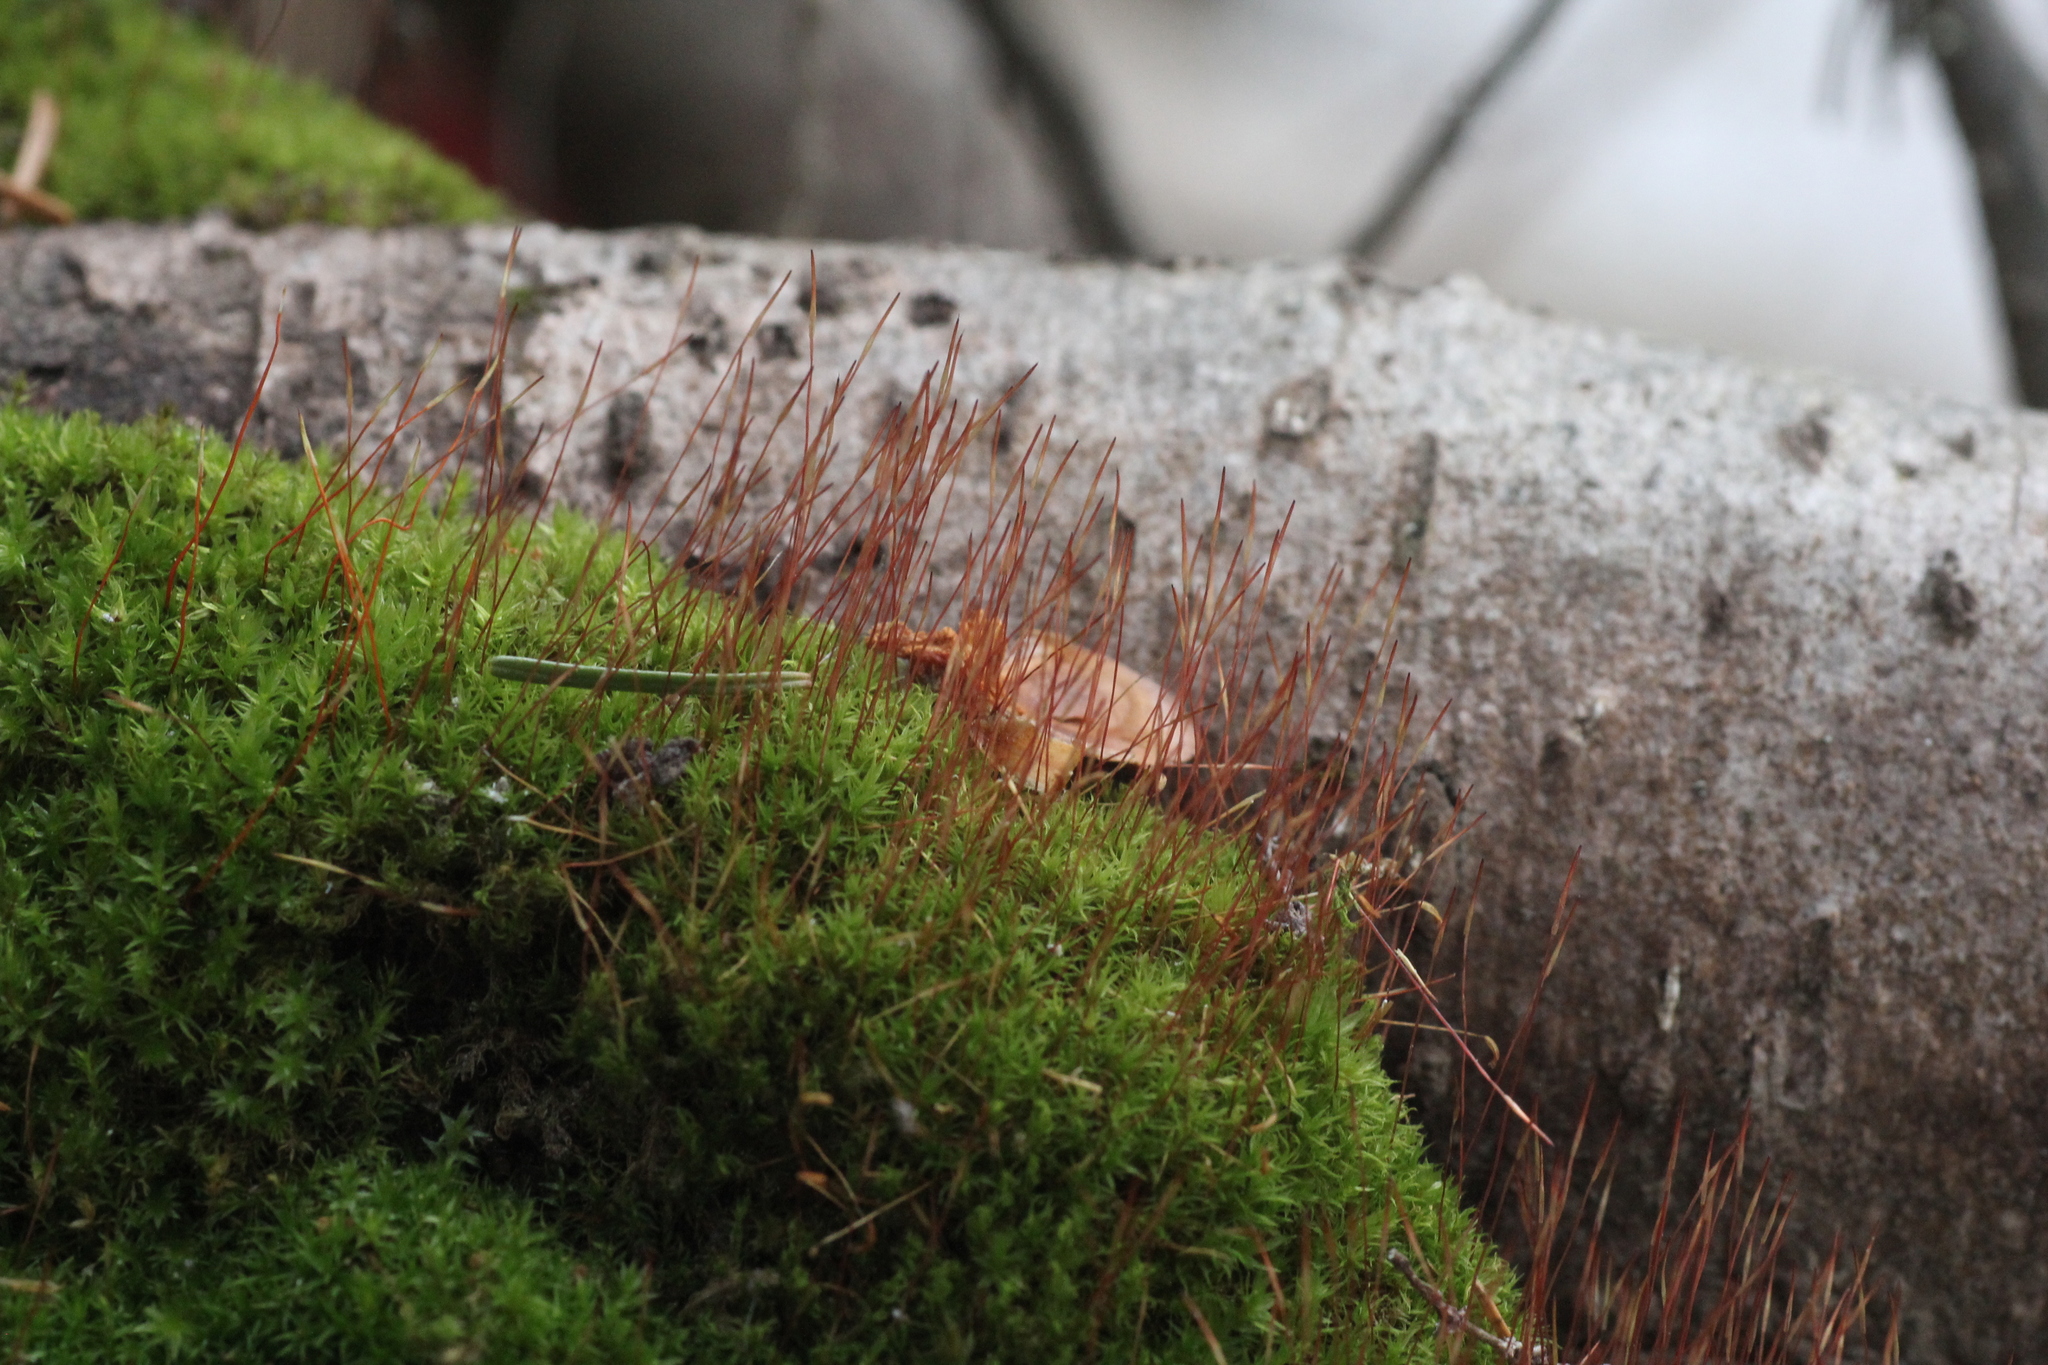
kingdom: Plantae
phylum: Bryophyta
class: Bryopsida
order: Dicranales
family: Ditrichaceae
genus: Ceratodon
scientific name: Ceratodon purpureus
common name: Redshank
